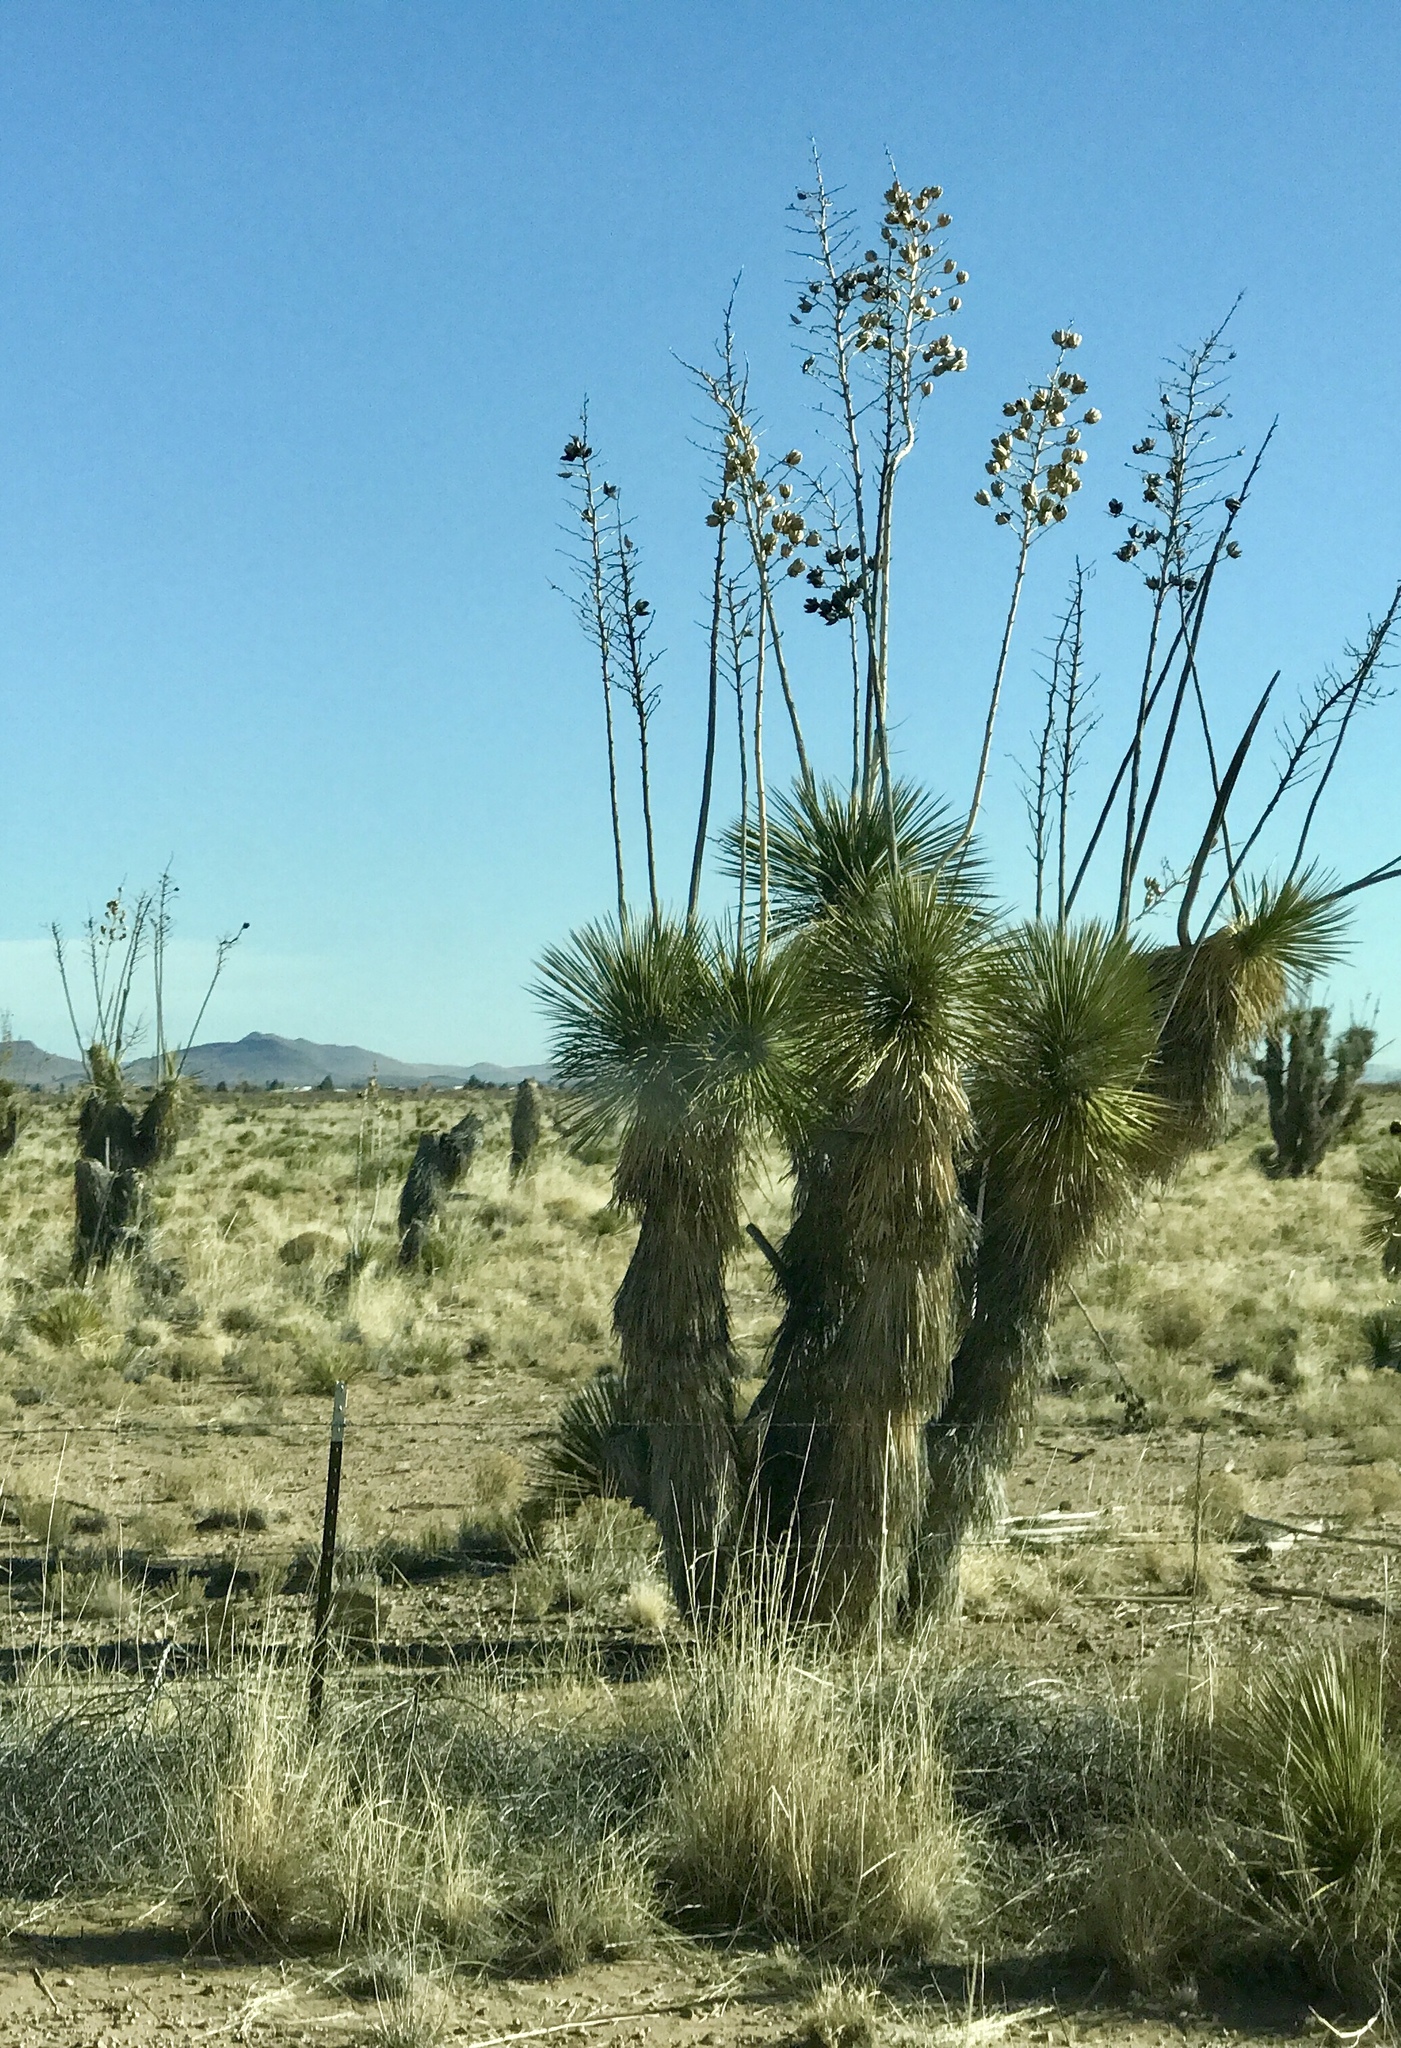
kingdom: Plantae
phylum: Tracheophyta
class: Liliopsida
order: Asparagales
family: Asparagaceae
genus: Yucca
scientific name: Yucca elata
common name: Palmella
